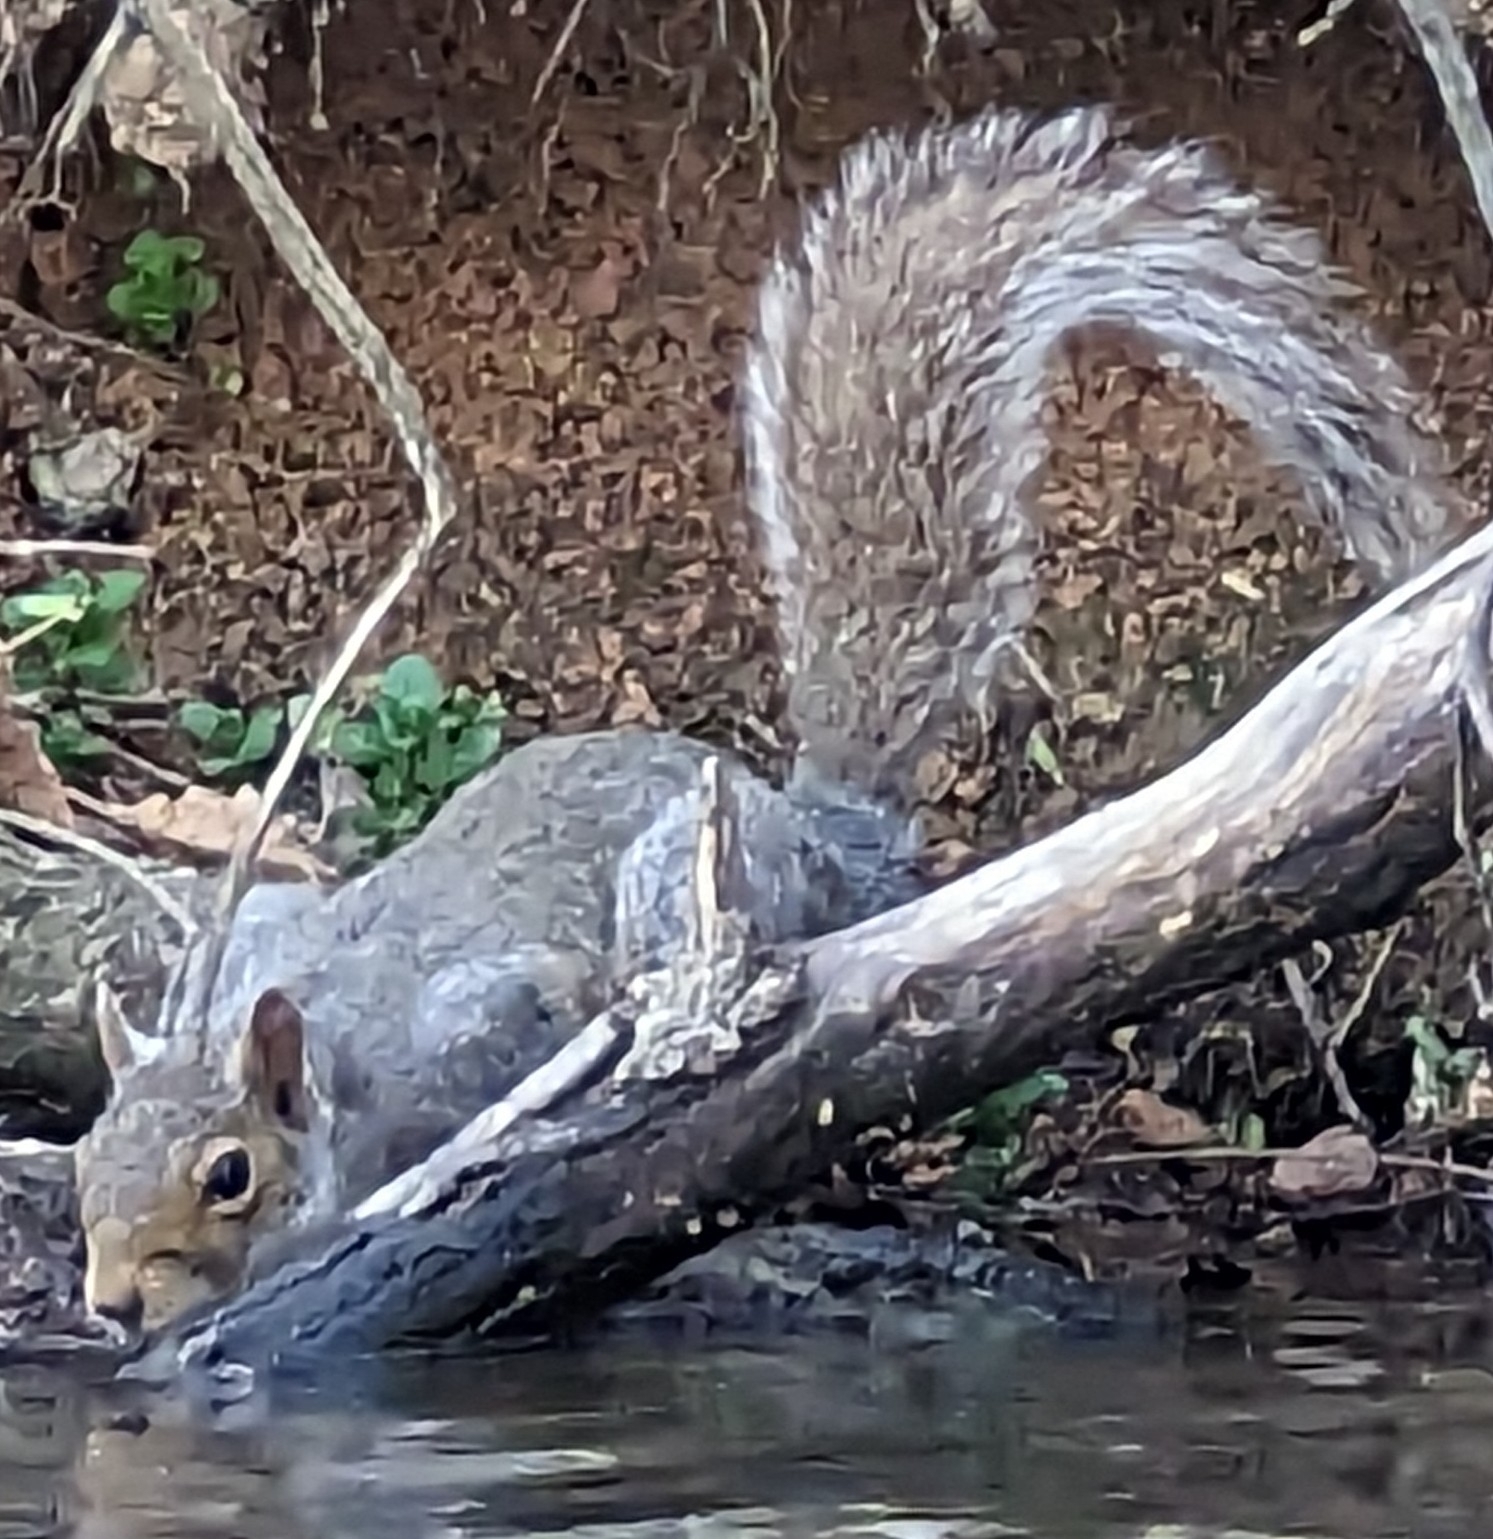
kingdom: Animalia
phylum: Chordata
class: Mammalia
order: Rodentia
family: Sciuridae
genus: Sciurus
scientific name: Sciurus carolinensis
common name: Eastern gray squirrel
